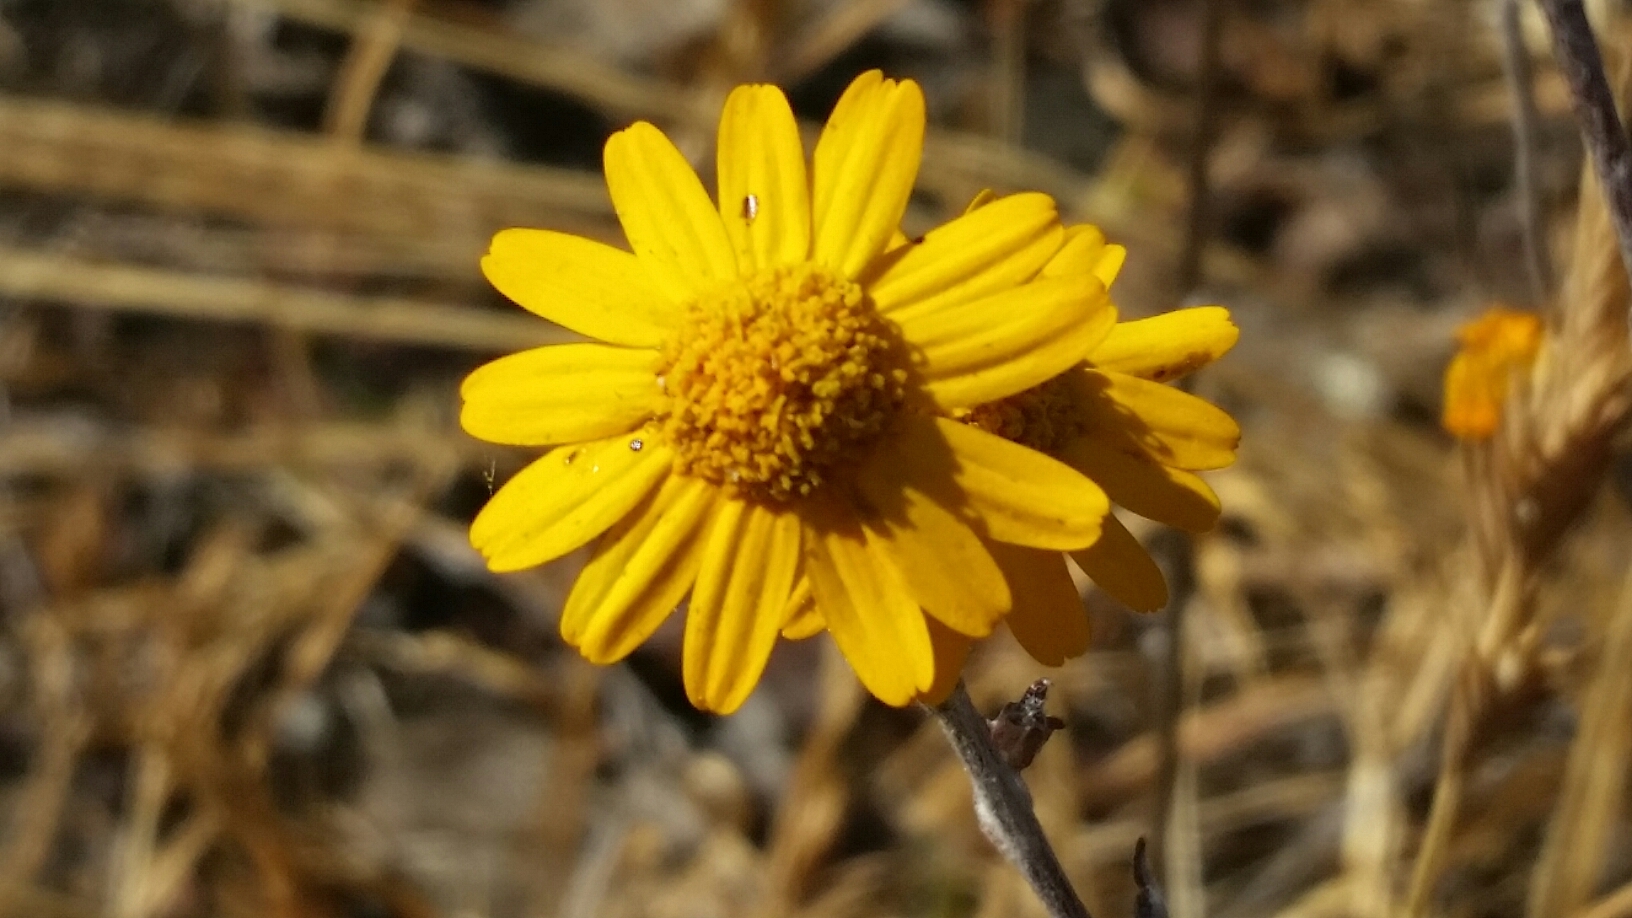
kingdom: Plantae
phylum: Tracheophyta
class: Magnoliopsida
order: Asterales
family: Asteraceae
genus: Eriophyllum
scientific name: Eriophyllum lanatum
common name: Common woolly-sunflower
